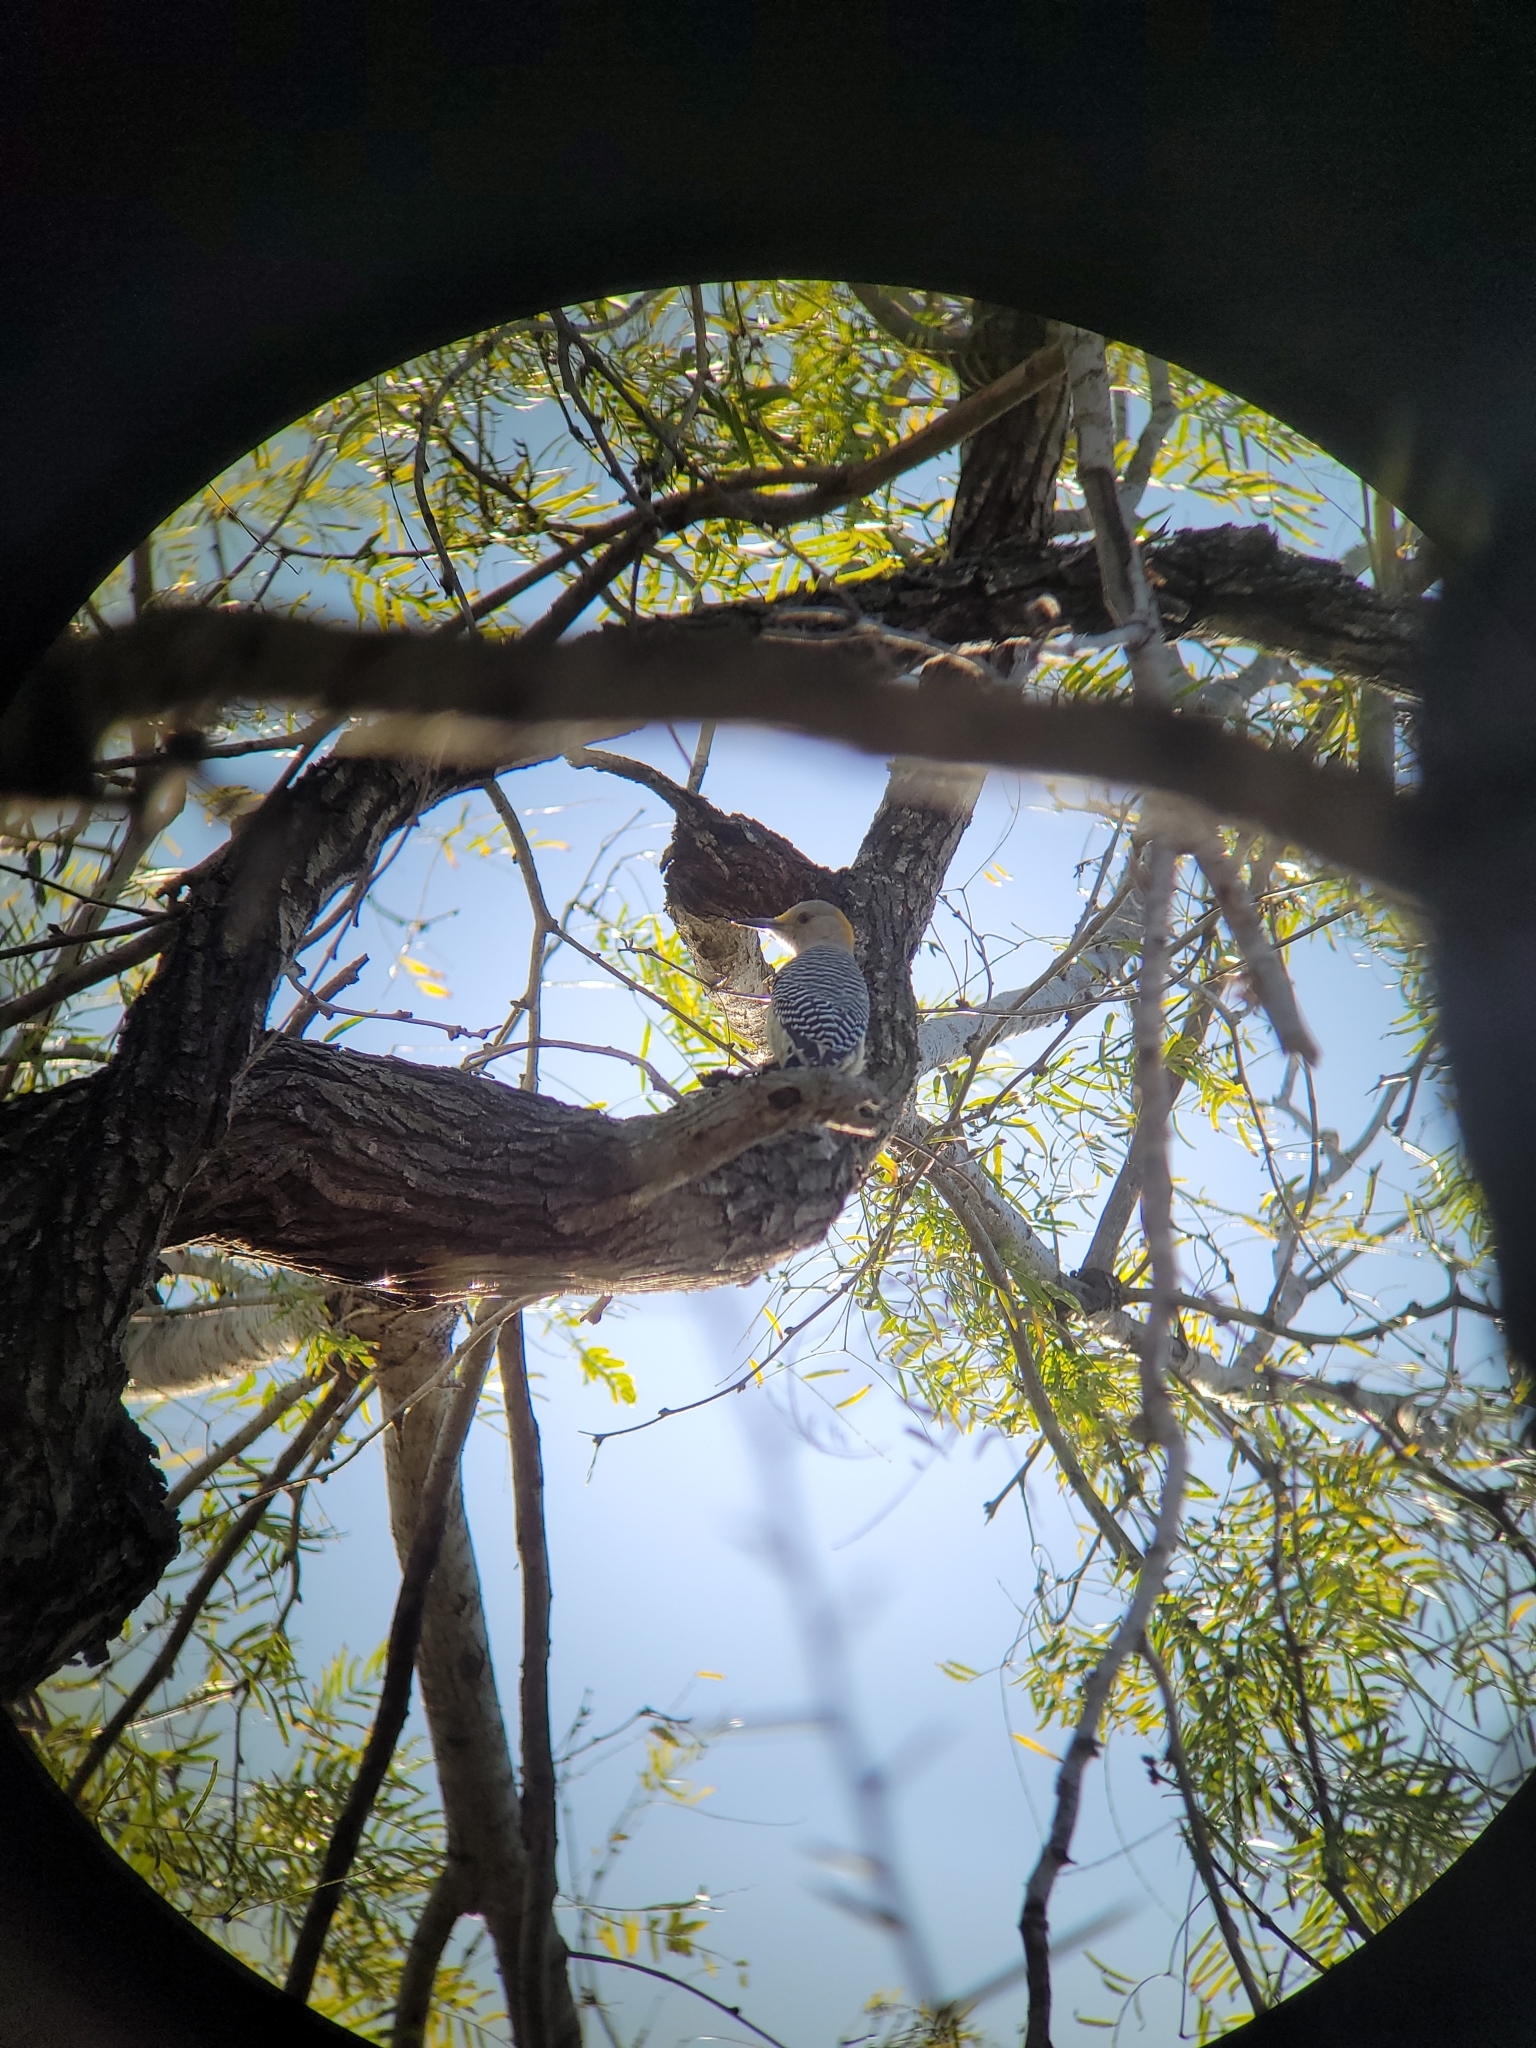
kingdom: Animalia
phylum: Chordata
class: Aves
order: Piciformes
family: Picidae
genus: Melanerpes
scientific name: Melanerpes aurifrons
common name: Golden-fronted woodpecker
